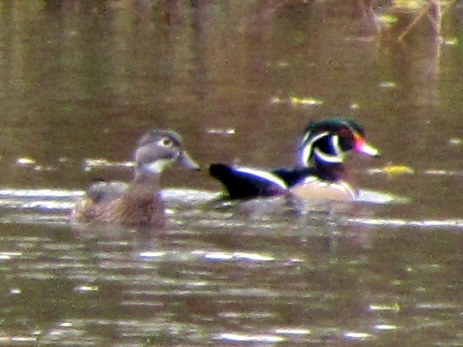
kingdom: Animalia
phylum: Chordata
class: Aves
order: Anseriformes
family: Anatidae
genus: Aix
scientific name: Aix sponsa
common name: Wood duck
